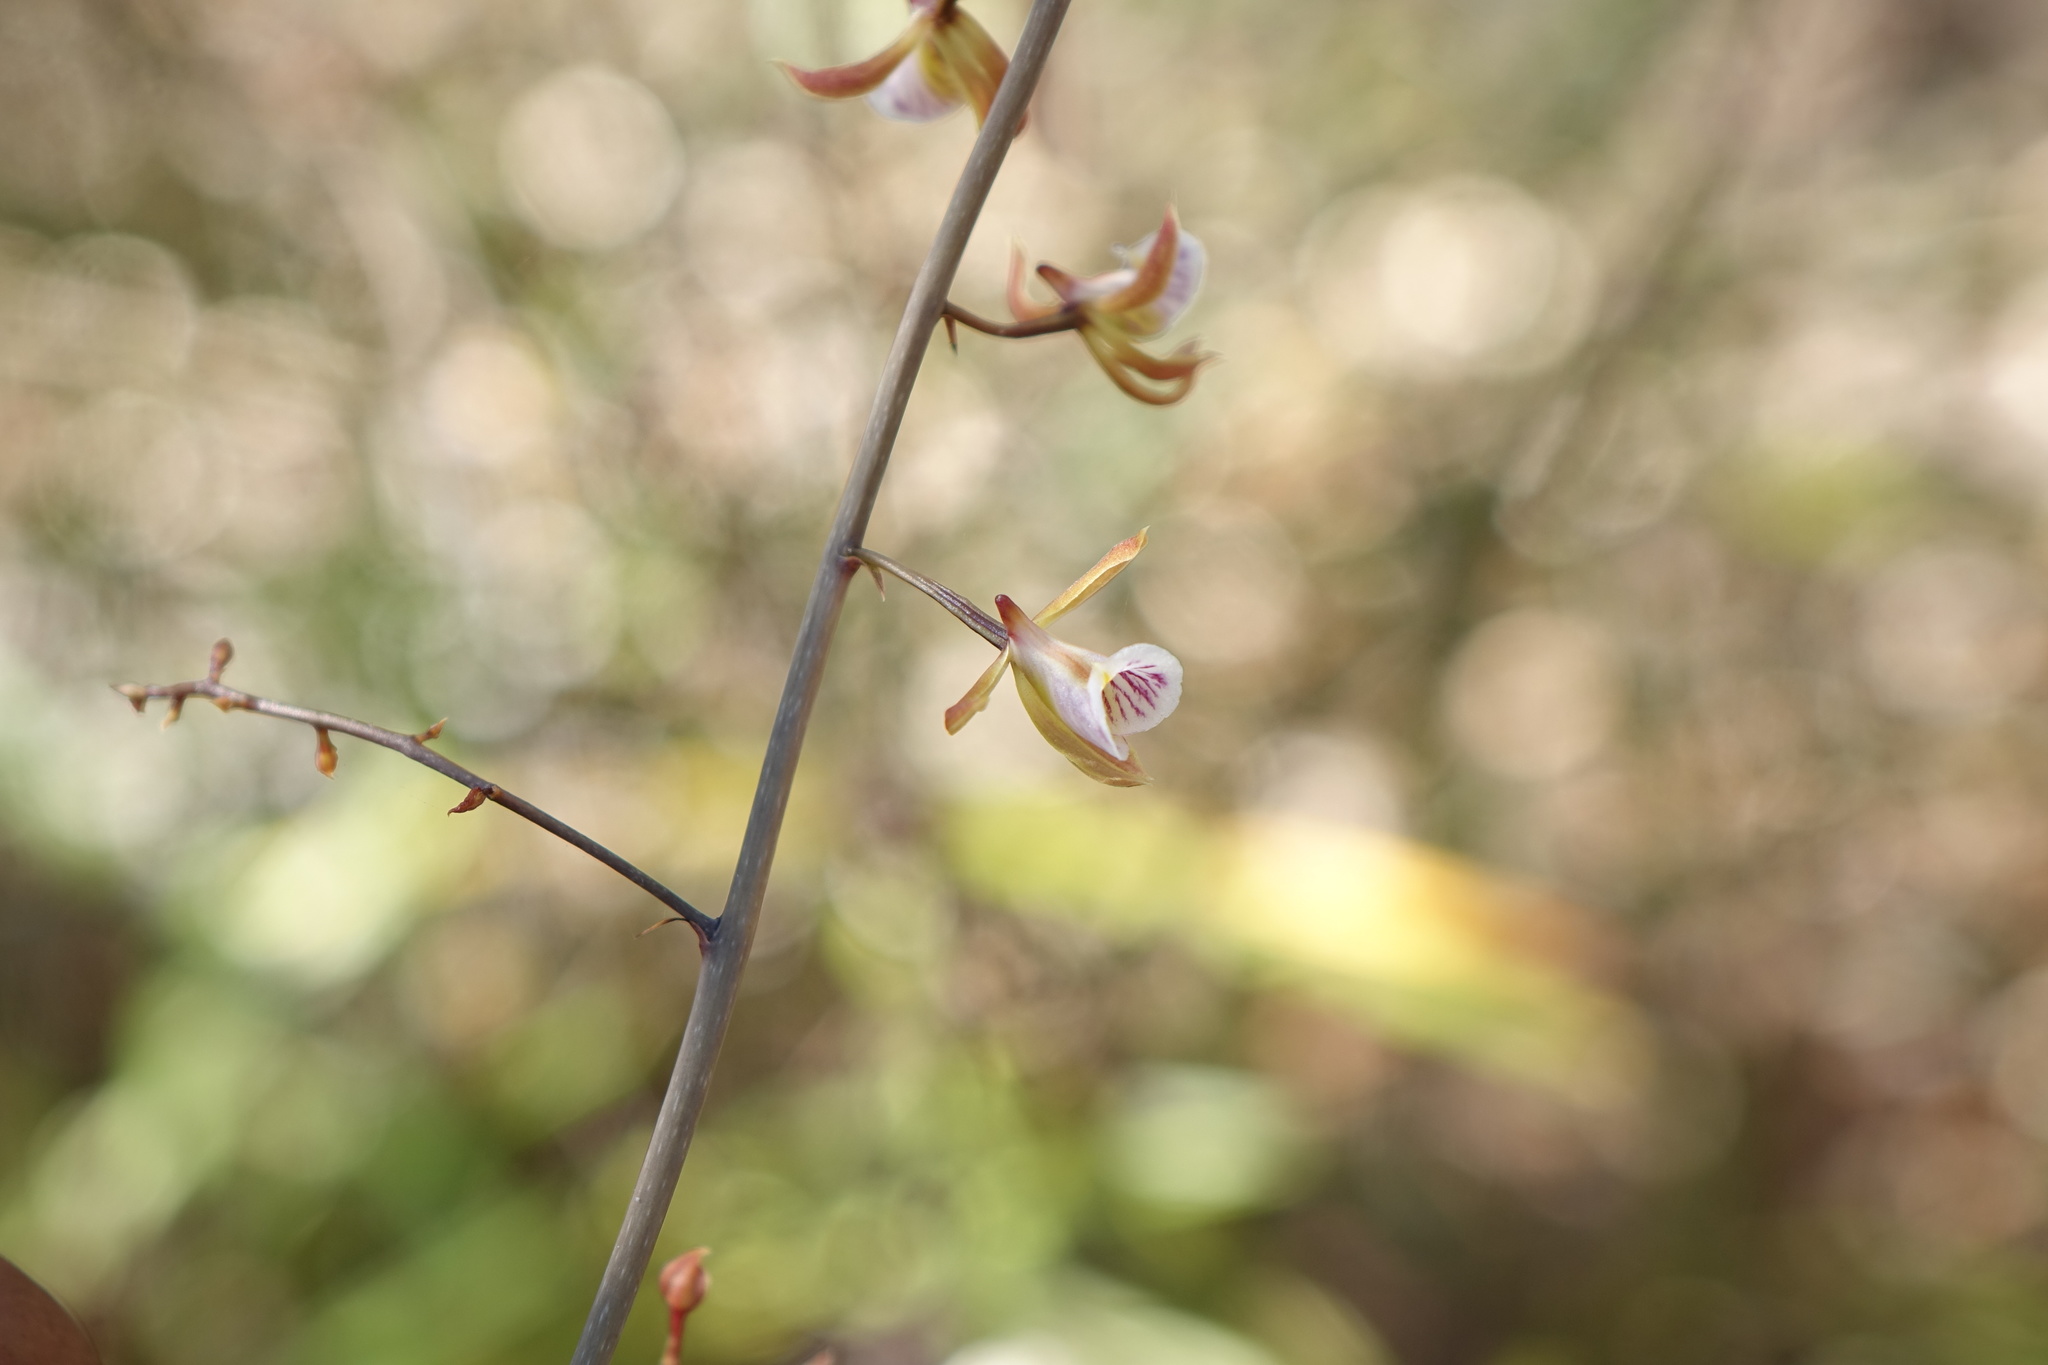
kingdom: Plantae
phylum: Tracheophyta
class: Liliopsida
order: Asparagales
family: Orchidaceae
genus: Eulophia
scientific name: Eulophia beravensis
